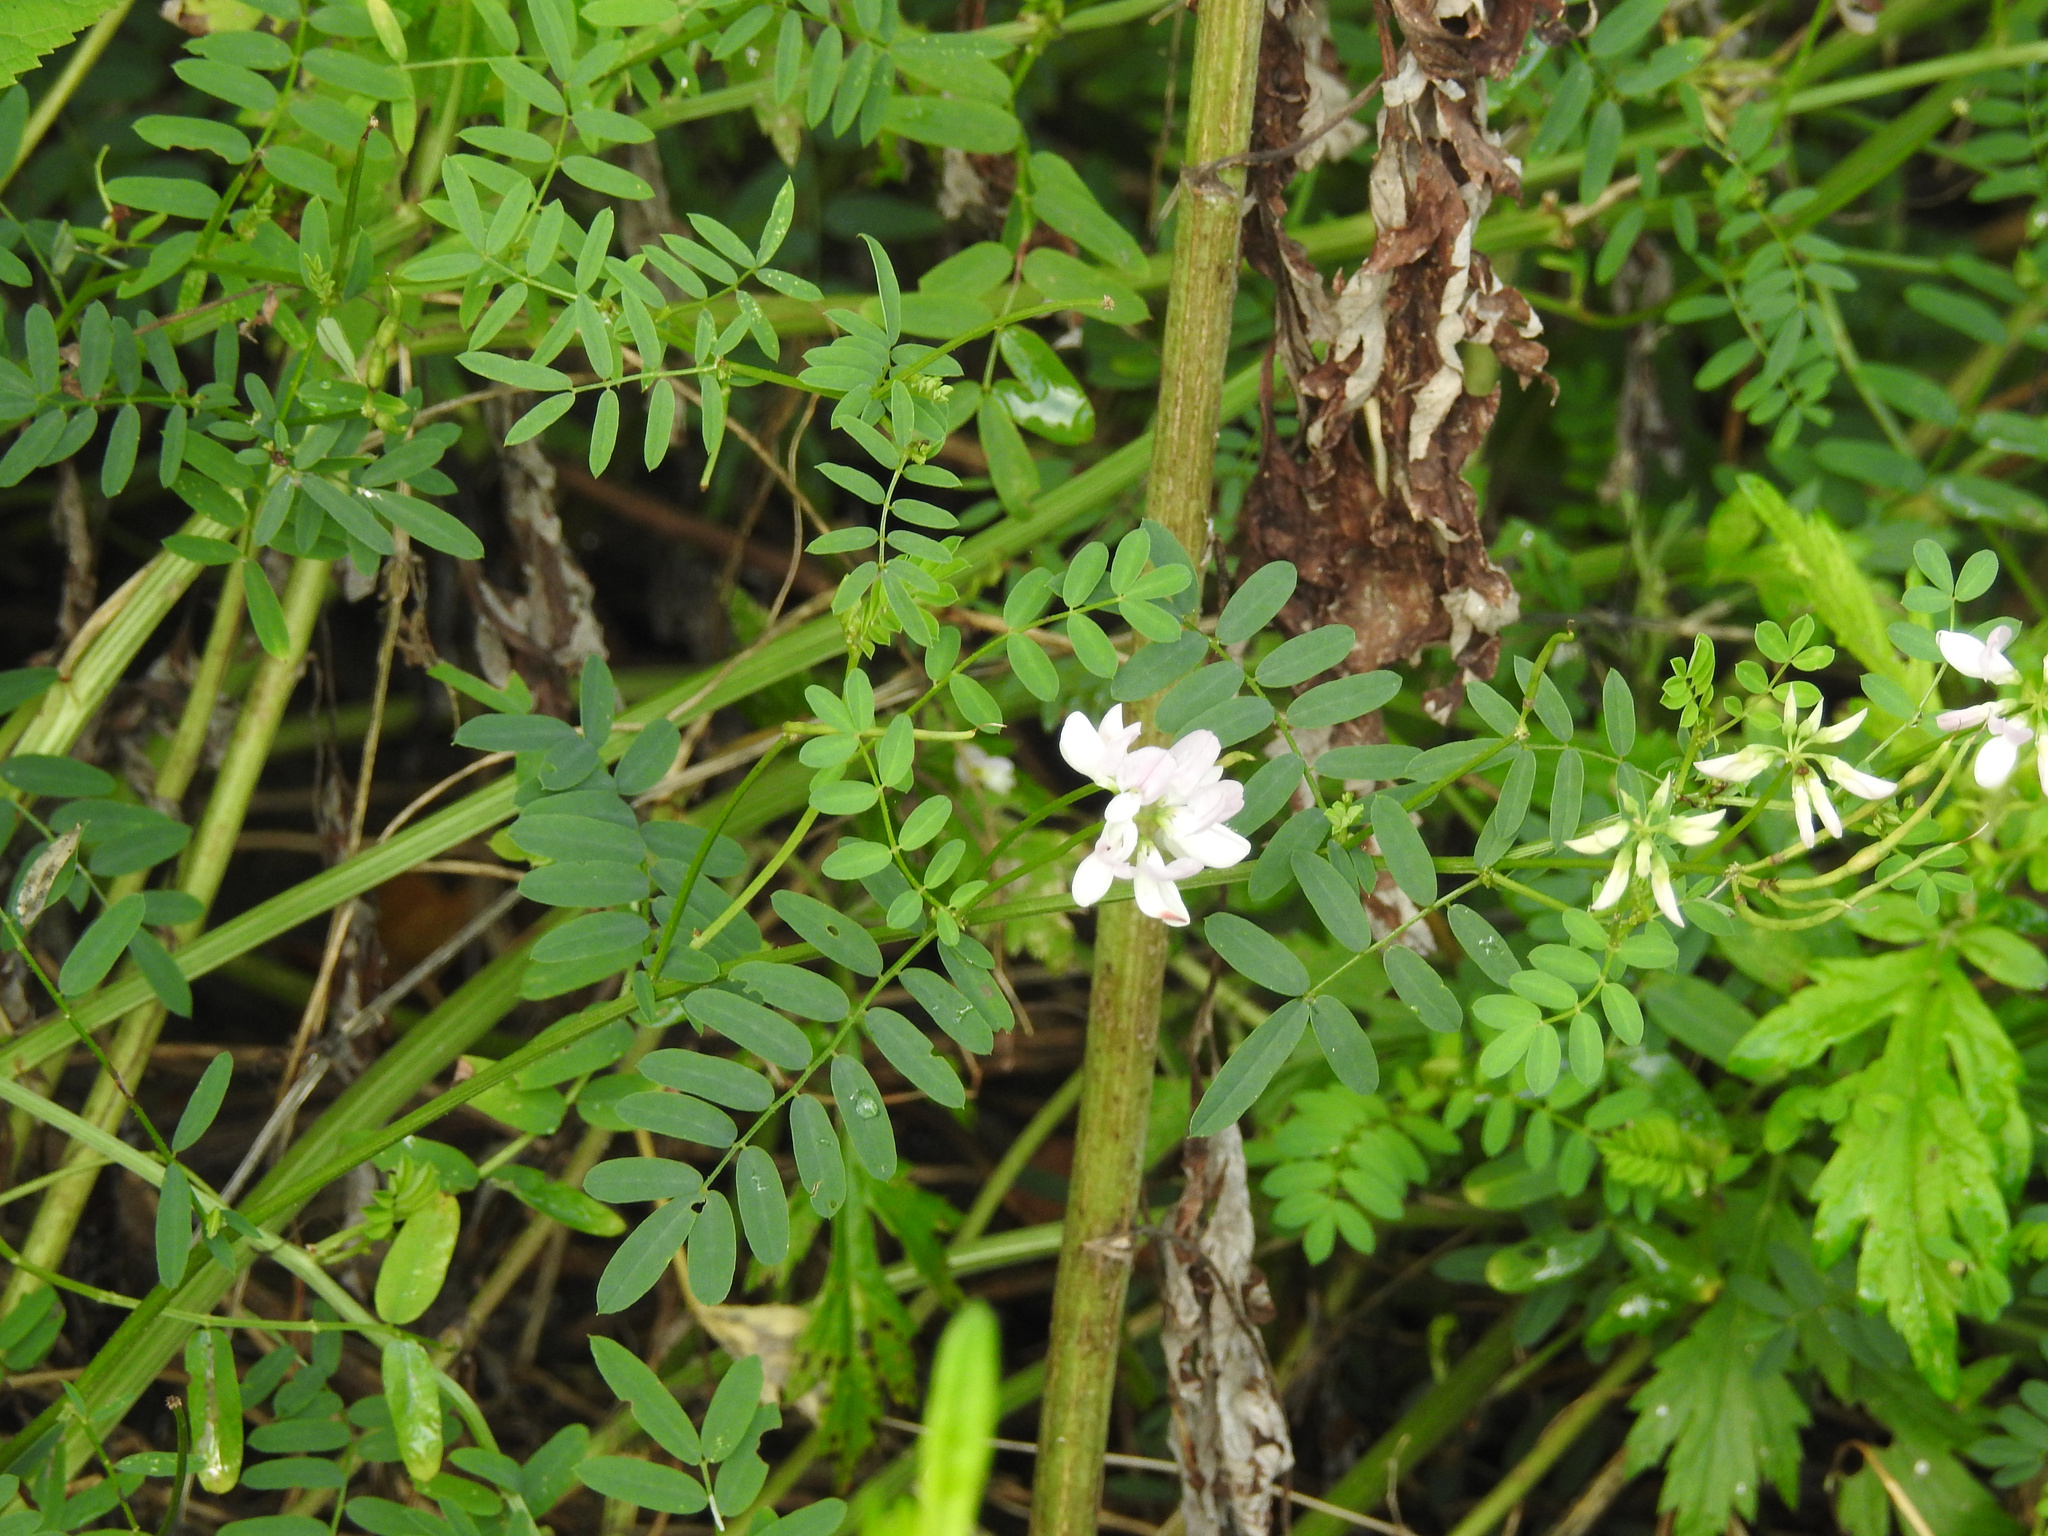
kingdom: Plantae
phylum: Tracheophyta
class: Magnoliopsida
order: Fabales
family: Fabaceae
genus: Coronilla
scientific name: Coronilla varia
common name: Crownvetch
